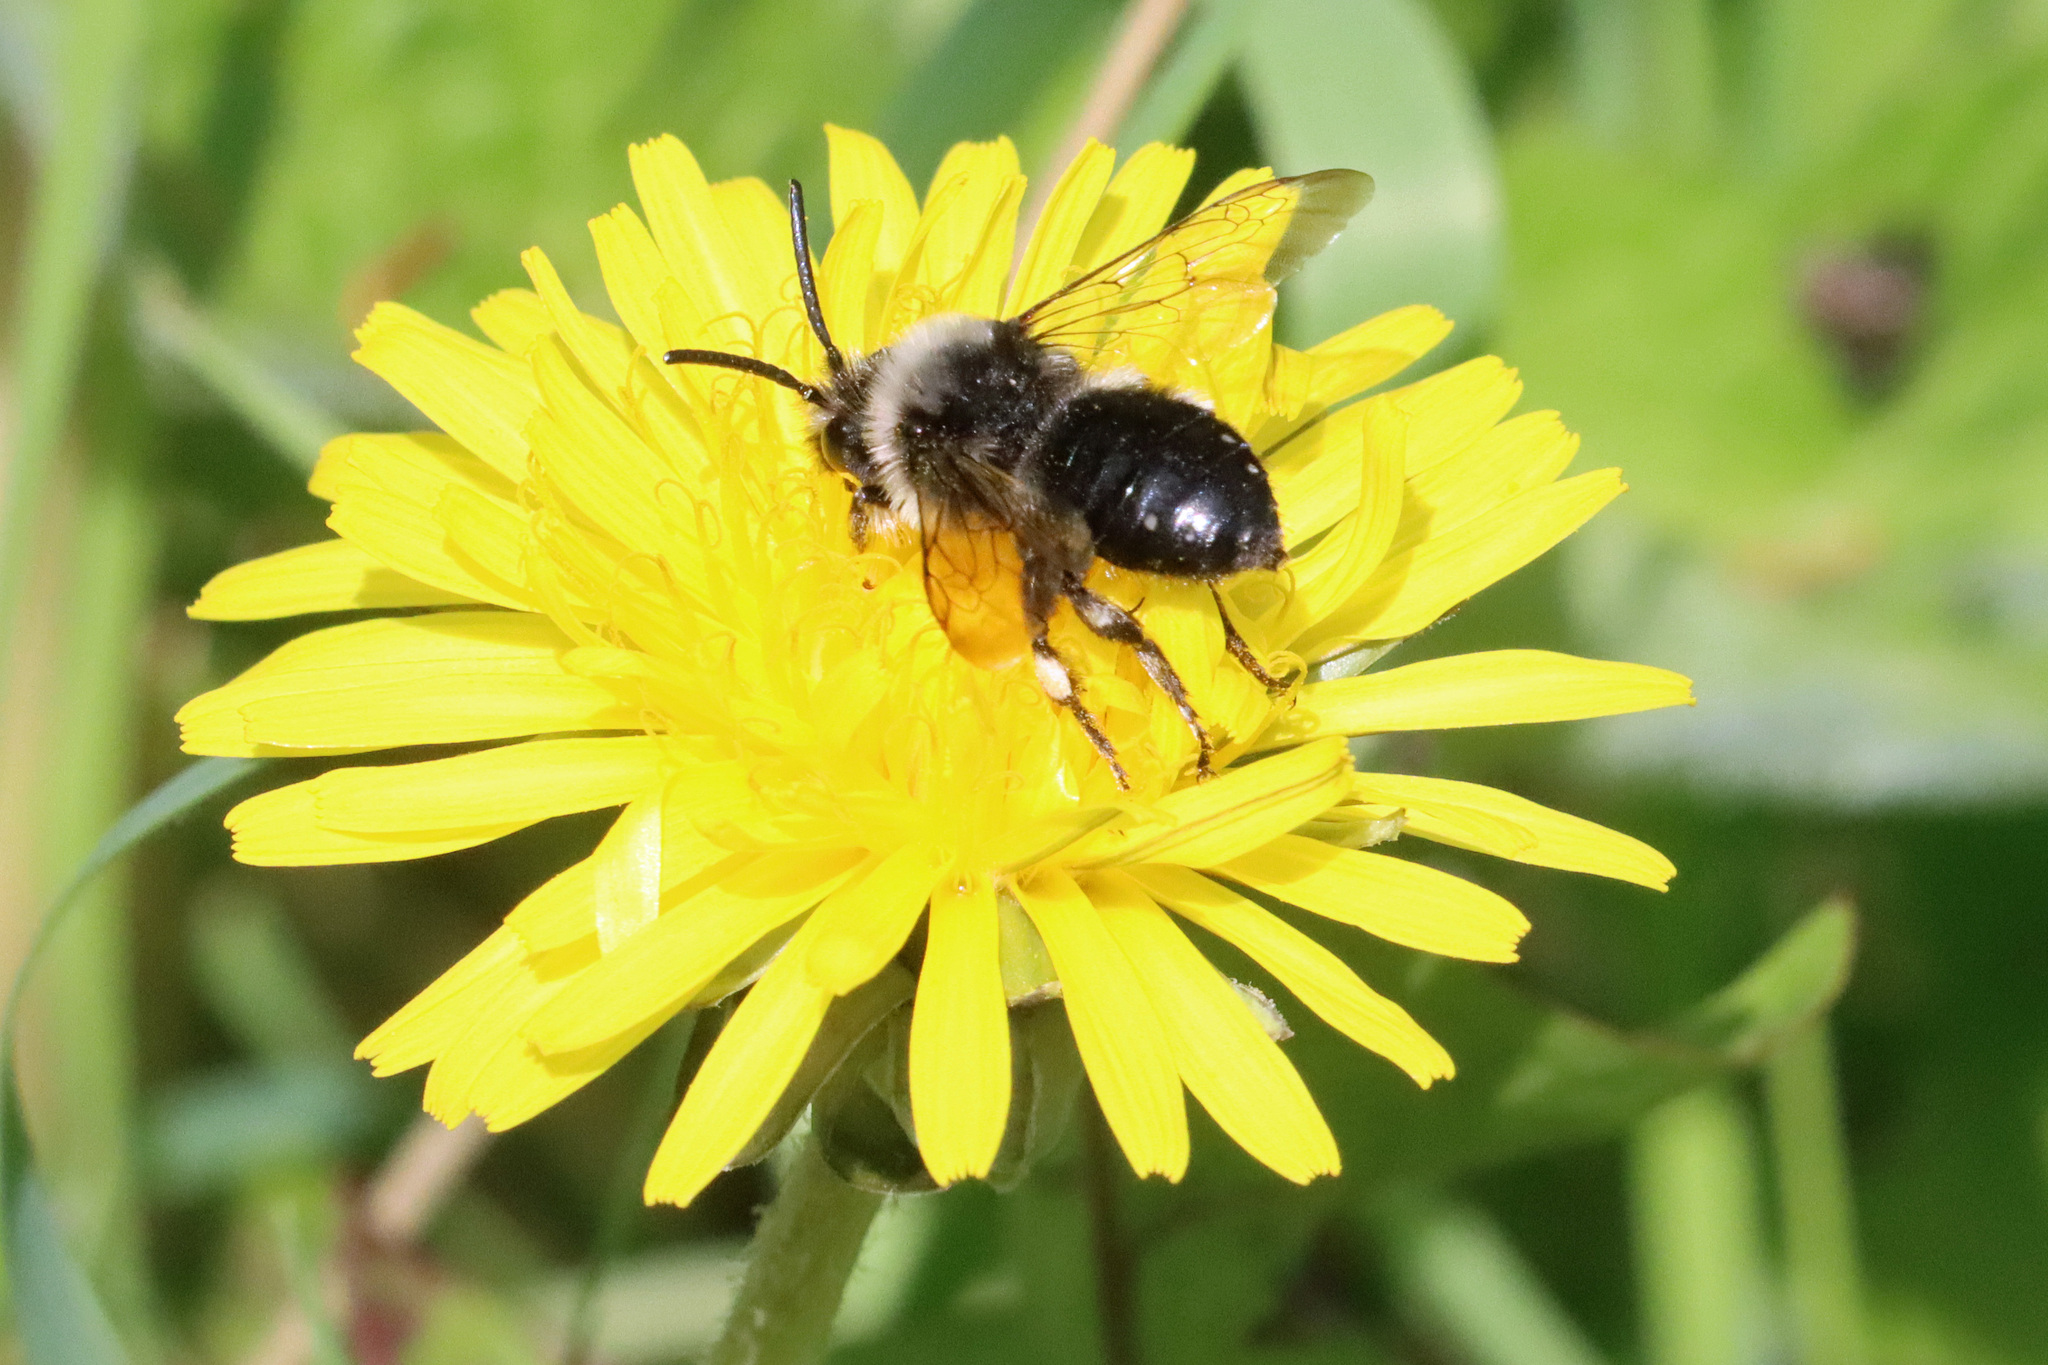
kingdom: Animalia
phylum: Arthropoda
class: Insecta
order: Hymenoptera
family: Apidae
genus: Melecta
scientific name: Melecta albifrons
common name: Common mourning bee
